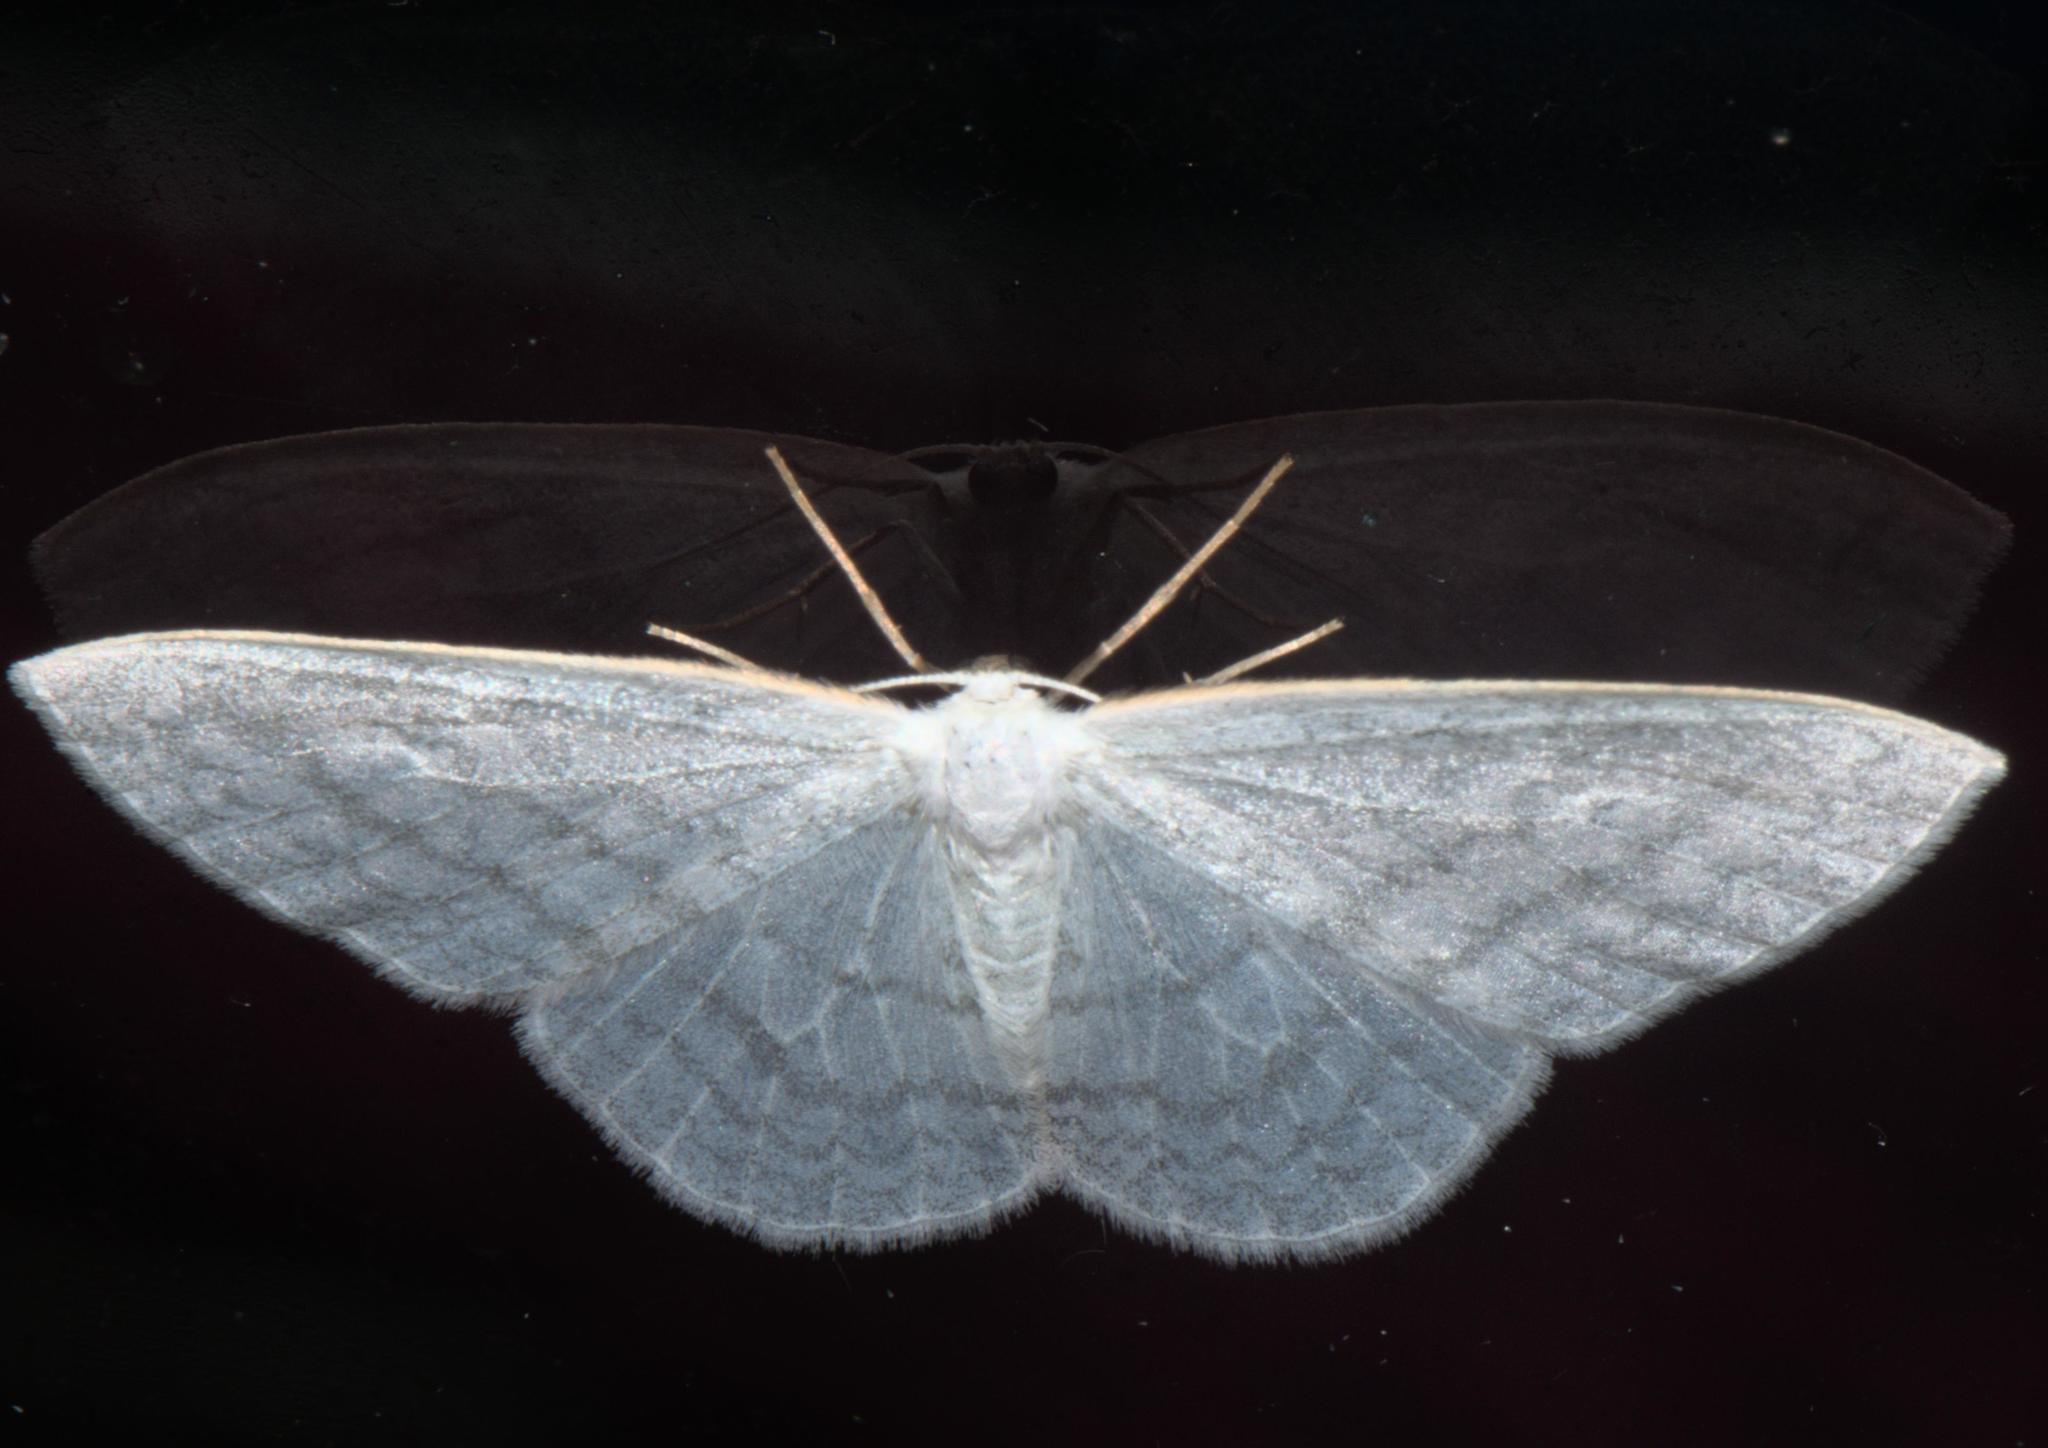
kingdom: Animalia
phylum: Arthropoda
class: Insecta
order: Lepidoptera
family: Drepanidae
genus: Ditrigona
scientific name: Ditrigona idaeoides
